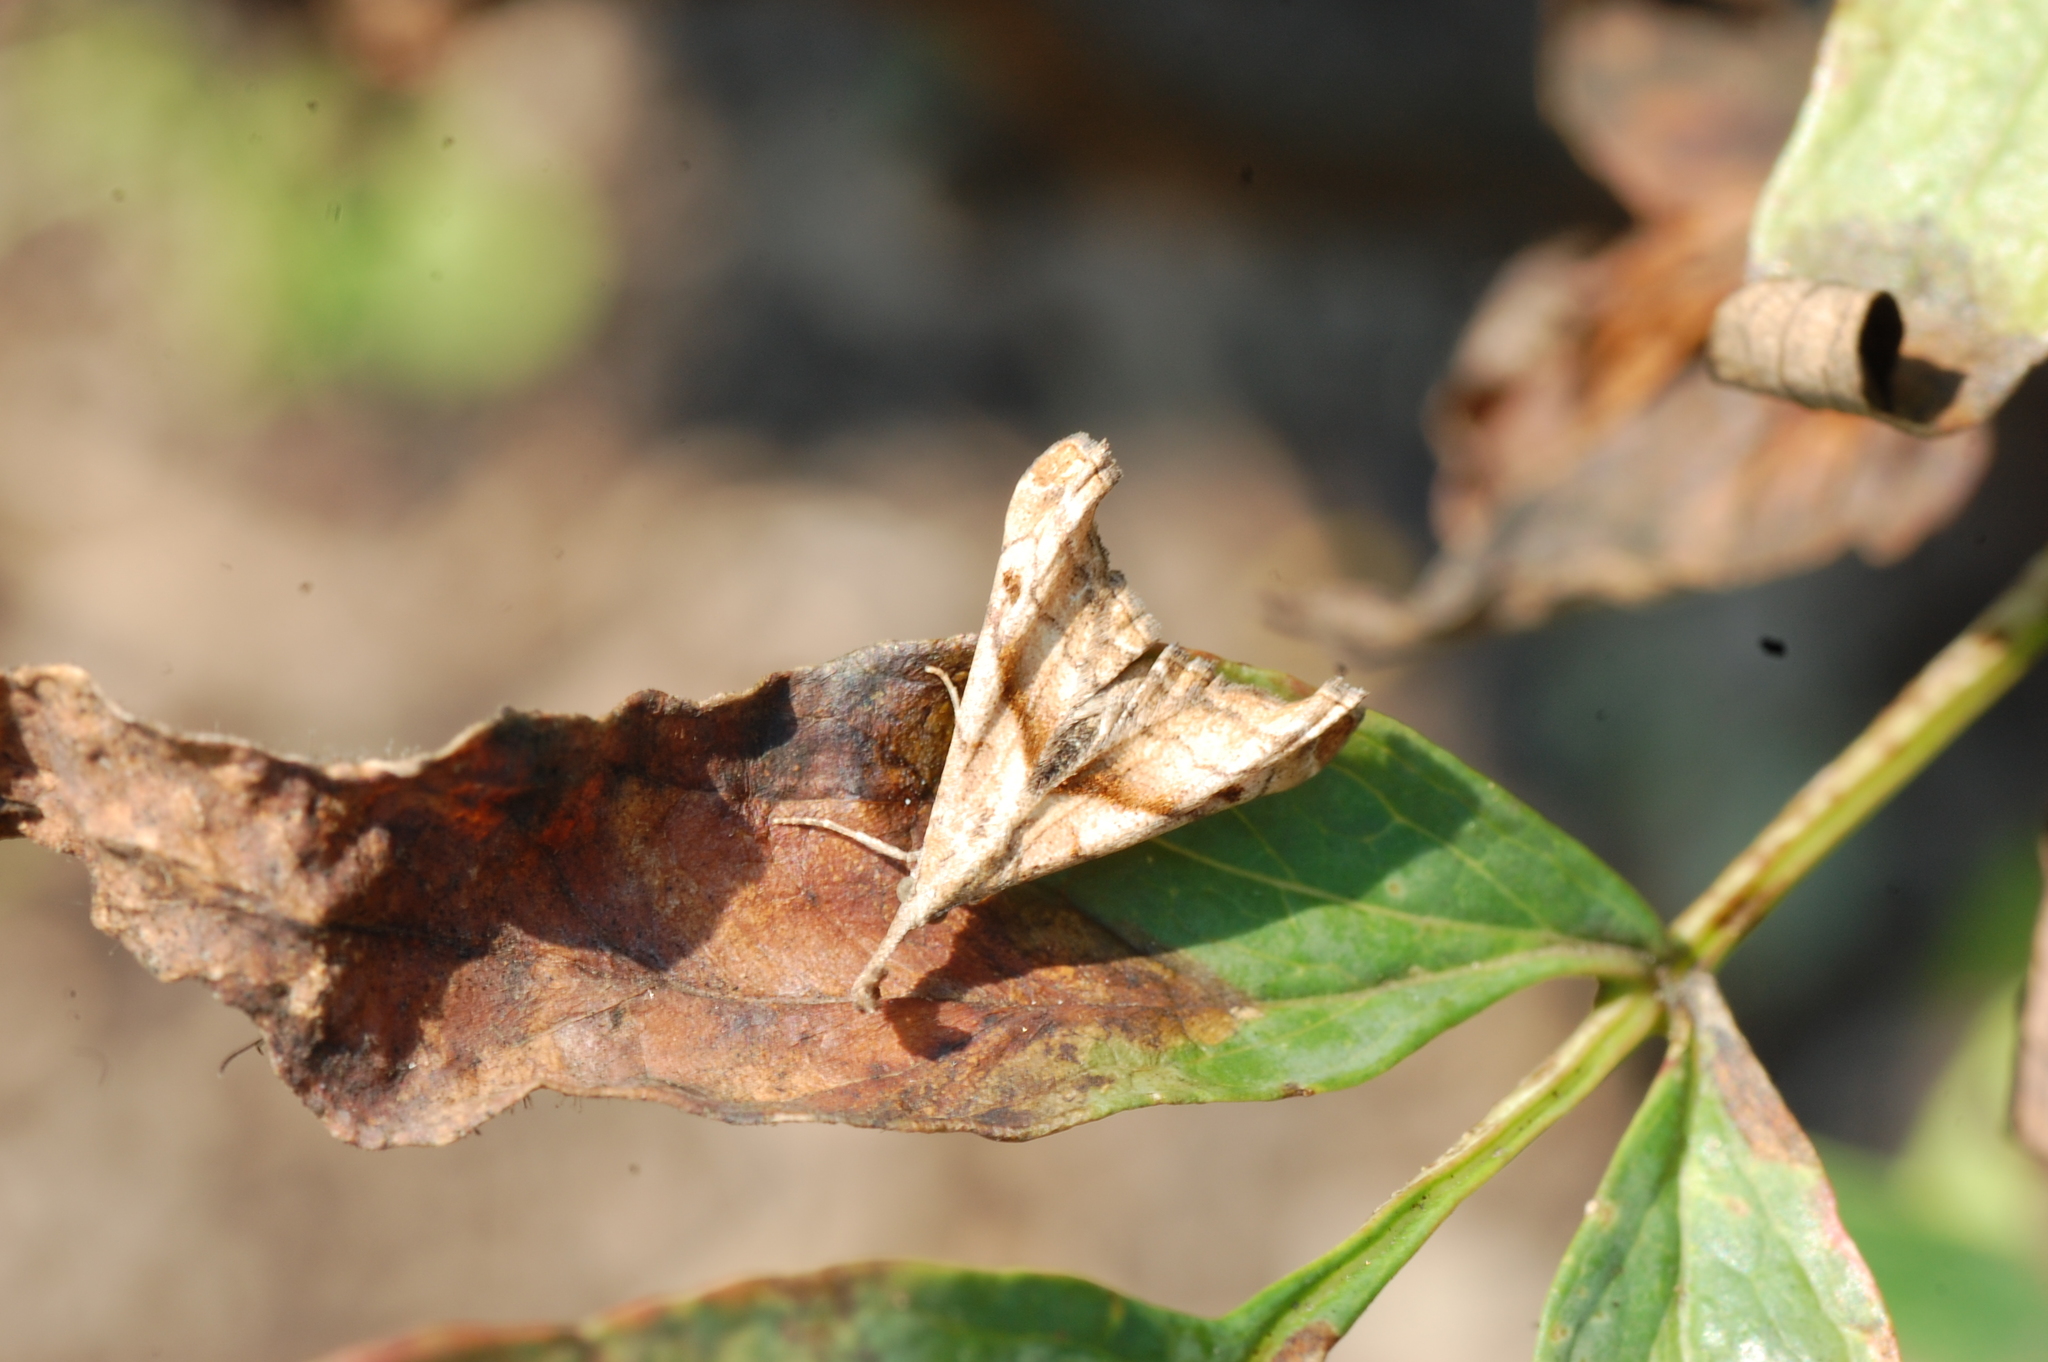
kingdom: Animalia
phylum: Arthropoda
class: Insecta
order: Lepidoptera
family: Erebidae
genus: Palthis
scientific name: Palthis angulalis
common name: Dark-spotted palthis moth
